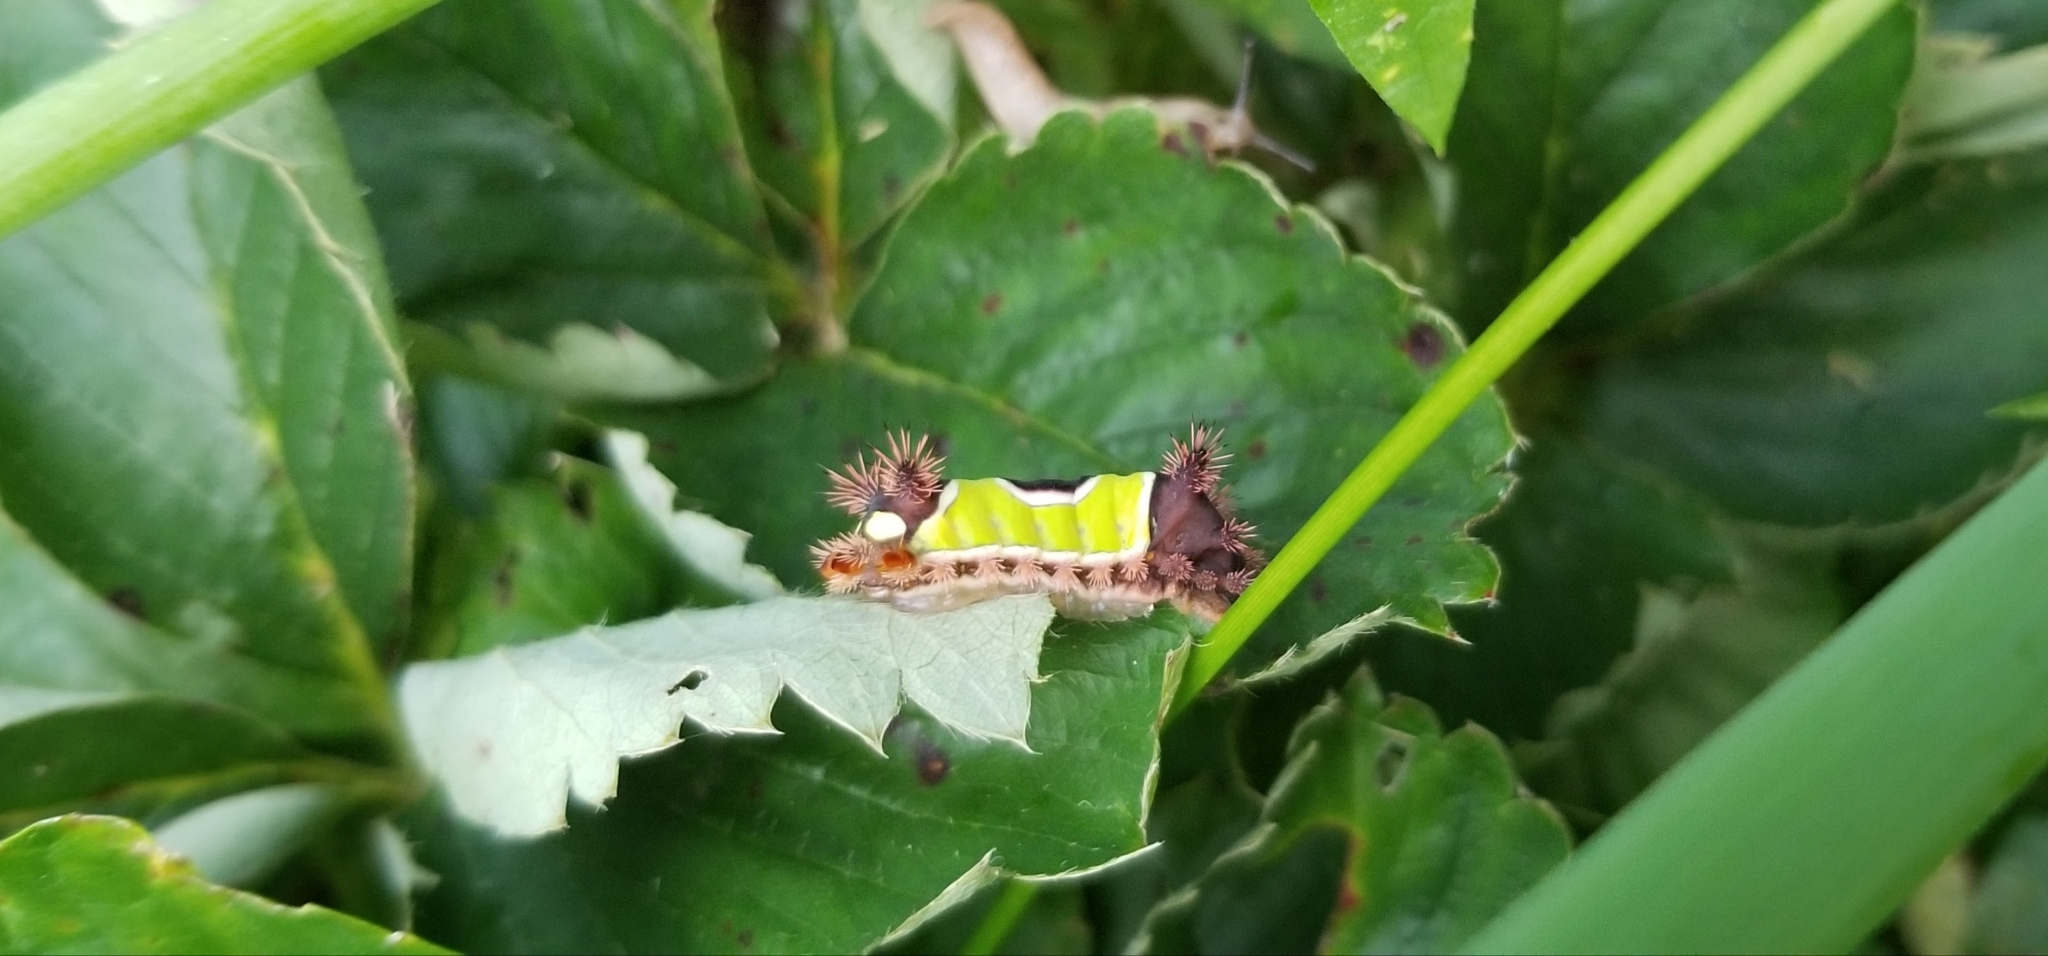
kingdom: Animalia
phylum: Arthropoda
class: Insecta
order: Lepidoptera
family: Limacodidae
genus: Acharia
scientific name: Acharia stimulea
